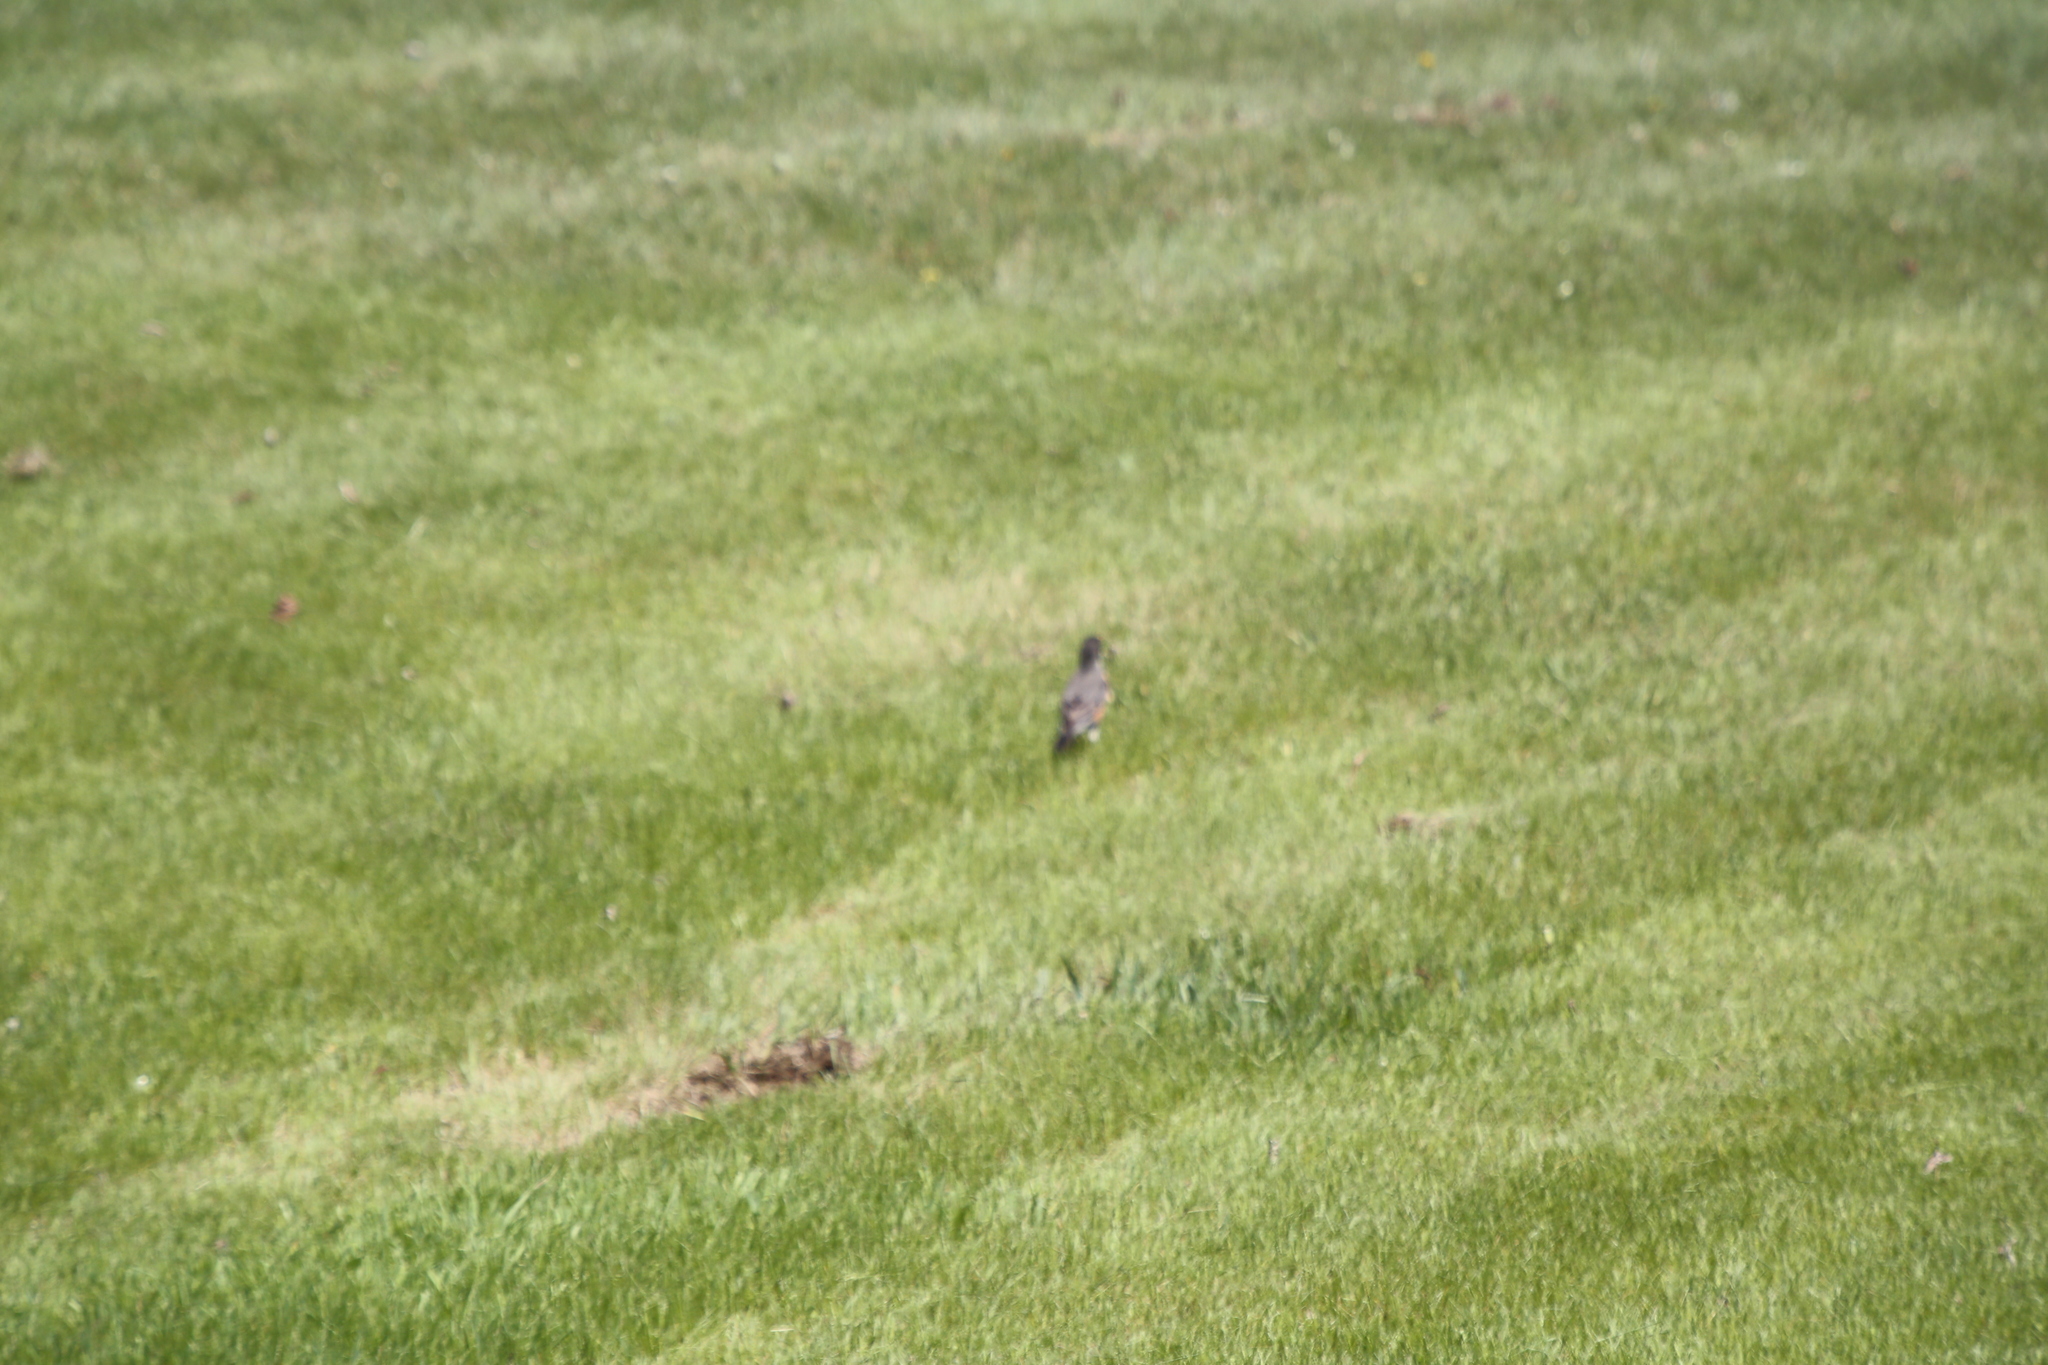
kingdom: Animalia
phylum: Chordata
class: Aves
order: Passeriformes
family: Turdidae
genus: Turdus
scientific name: Turdus migratorius
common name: American robin
